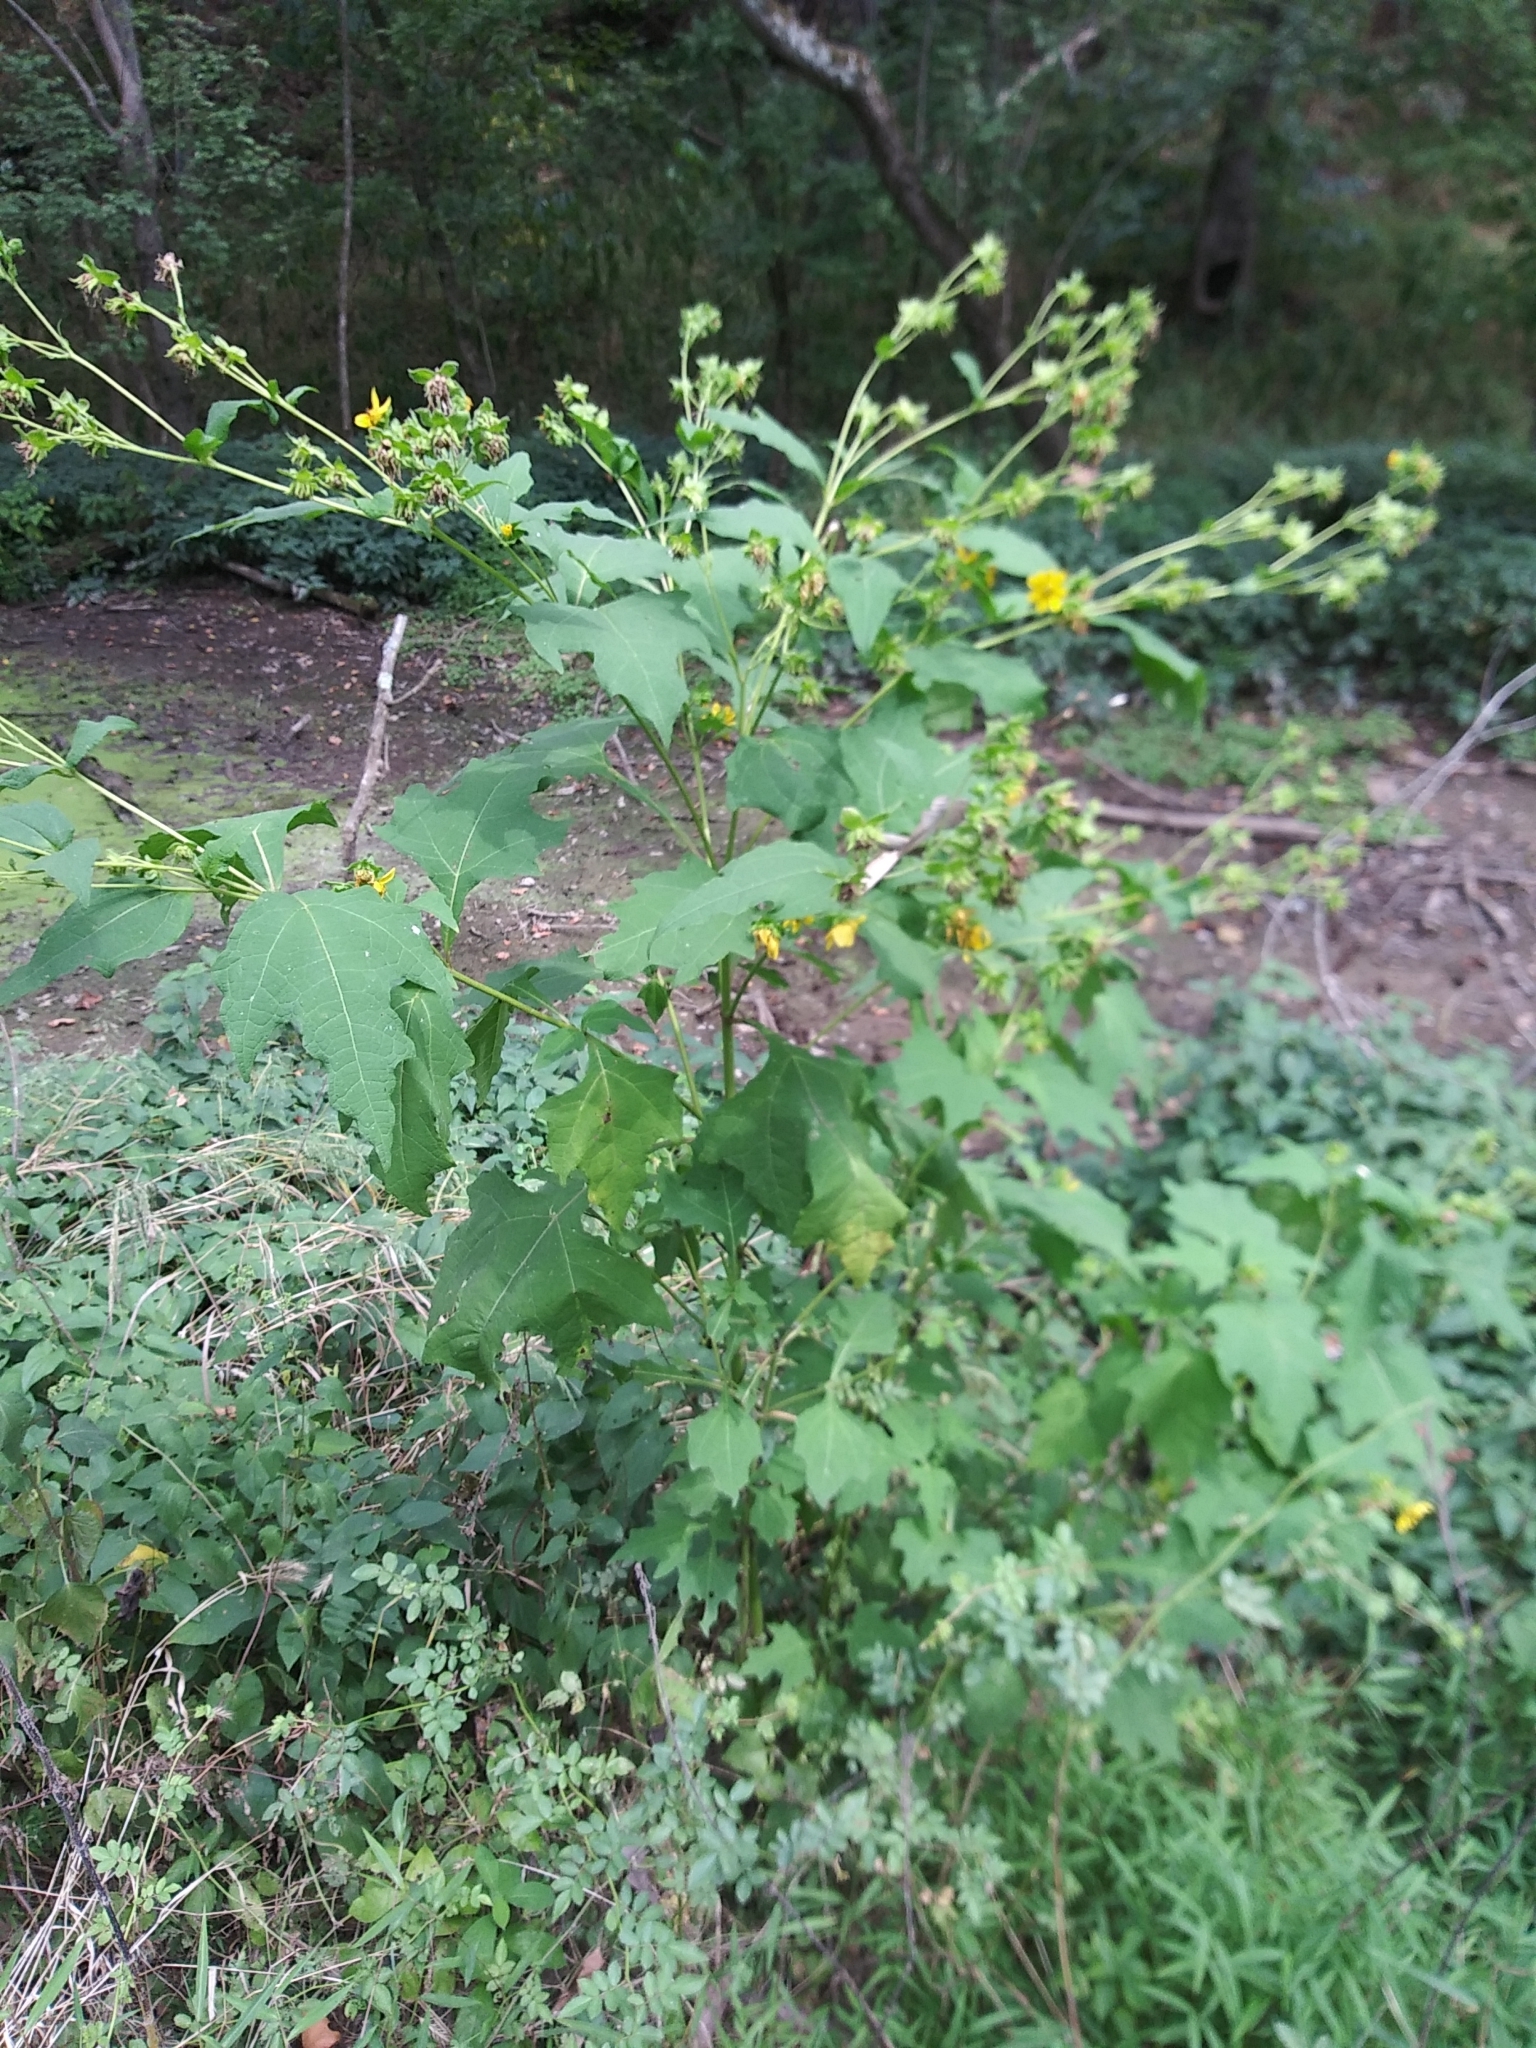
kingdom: Plantae
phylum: Tracheophyta
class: Magnoliopsida
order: Asterales
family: Asteraceae
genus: Smallanthus
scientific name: Smallanthus uvedalia
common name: Bear's-foot
